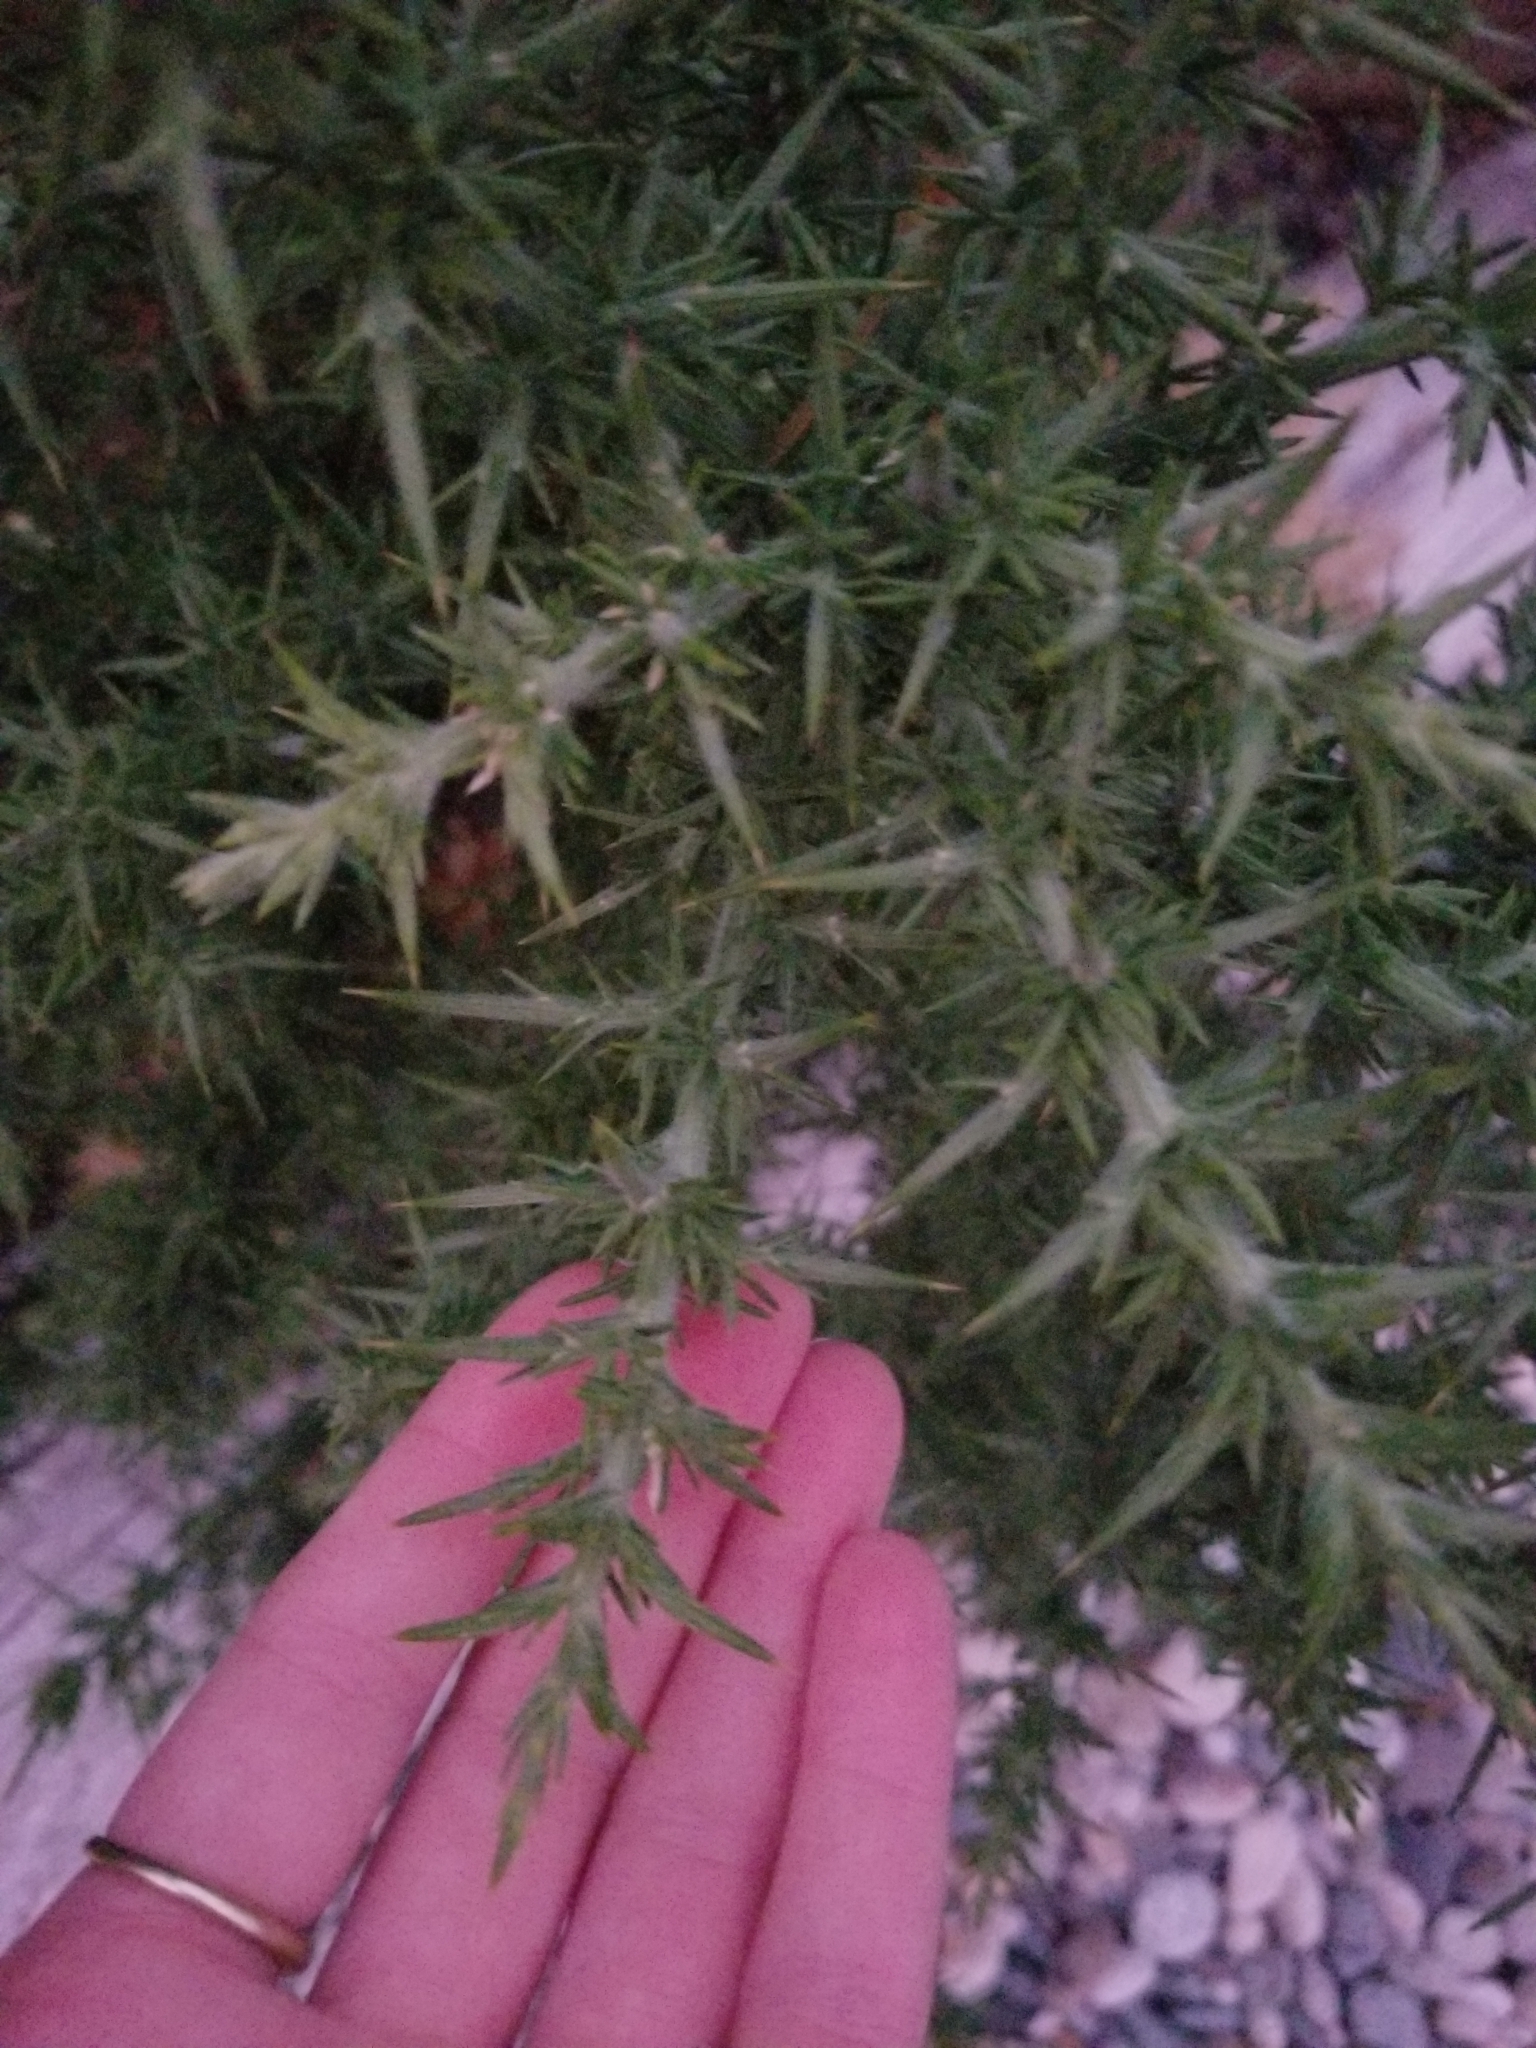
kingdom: Plantae
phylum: Tracheophyta
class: Magnoliopsida
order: Fabales
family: Fabaceae
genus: Ulex
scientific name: Ulex europaeus
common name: Common gorse
